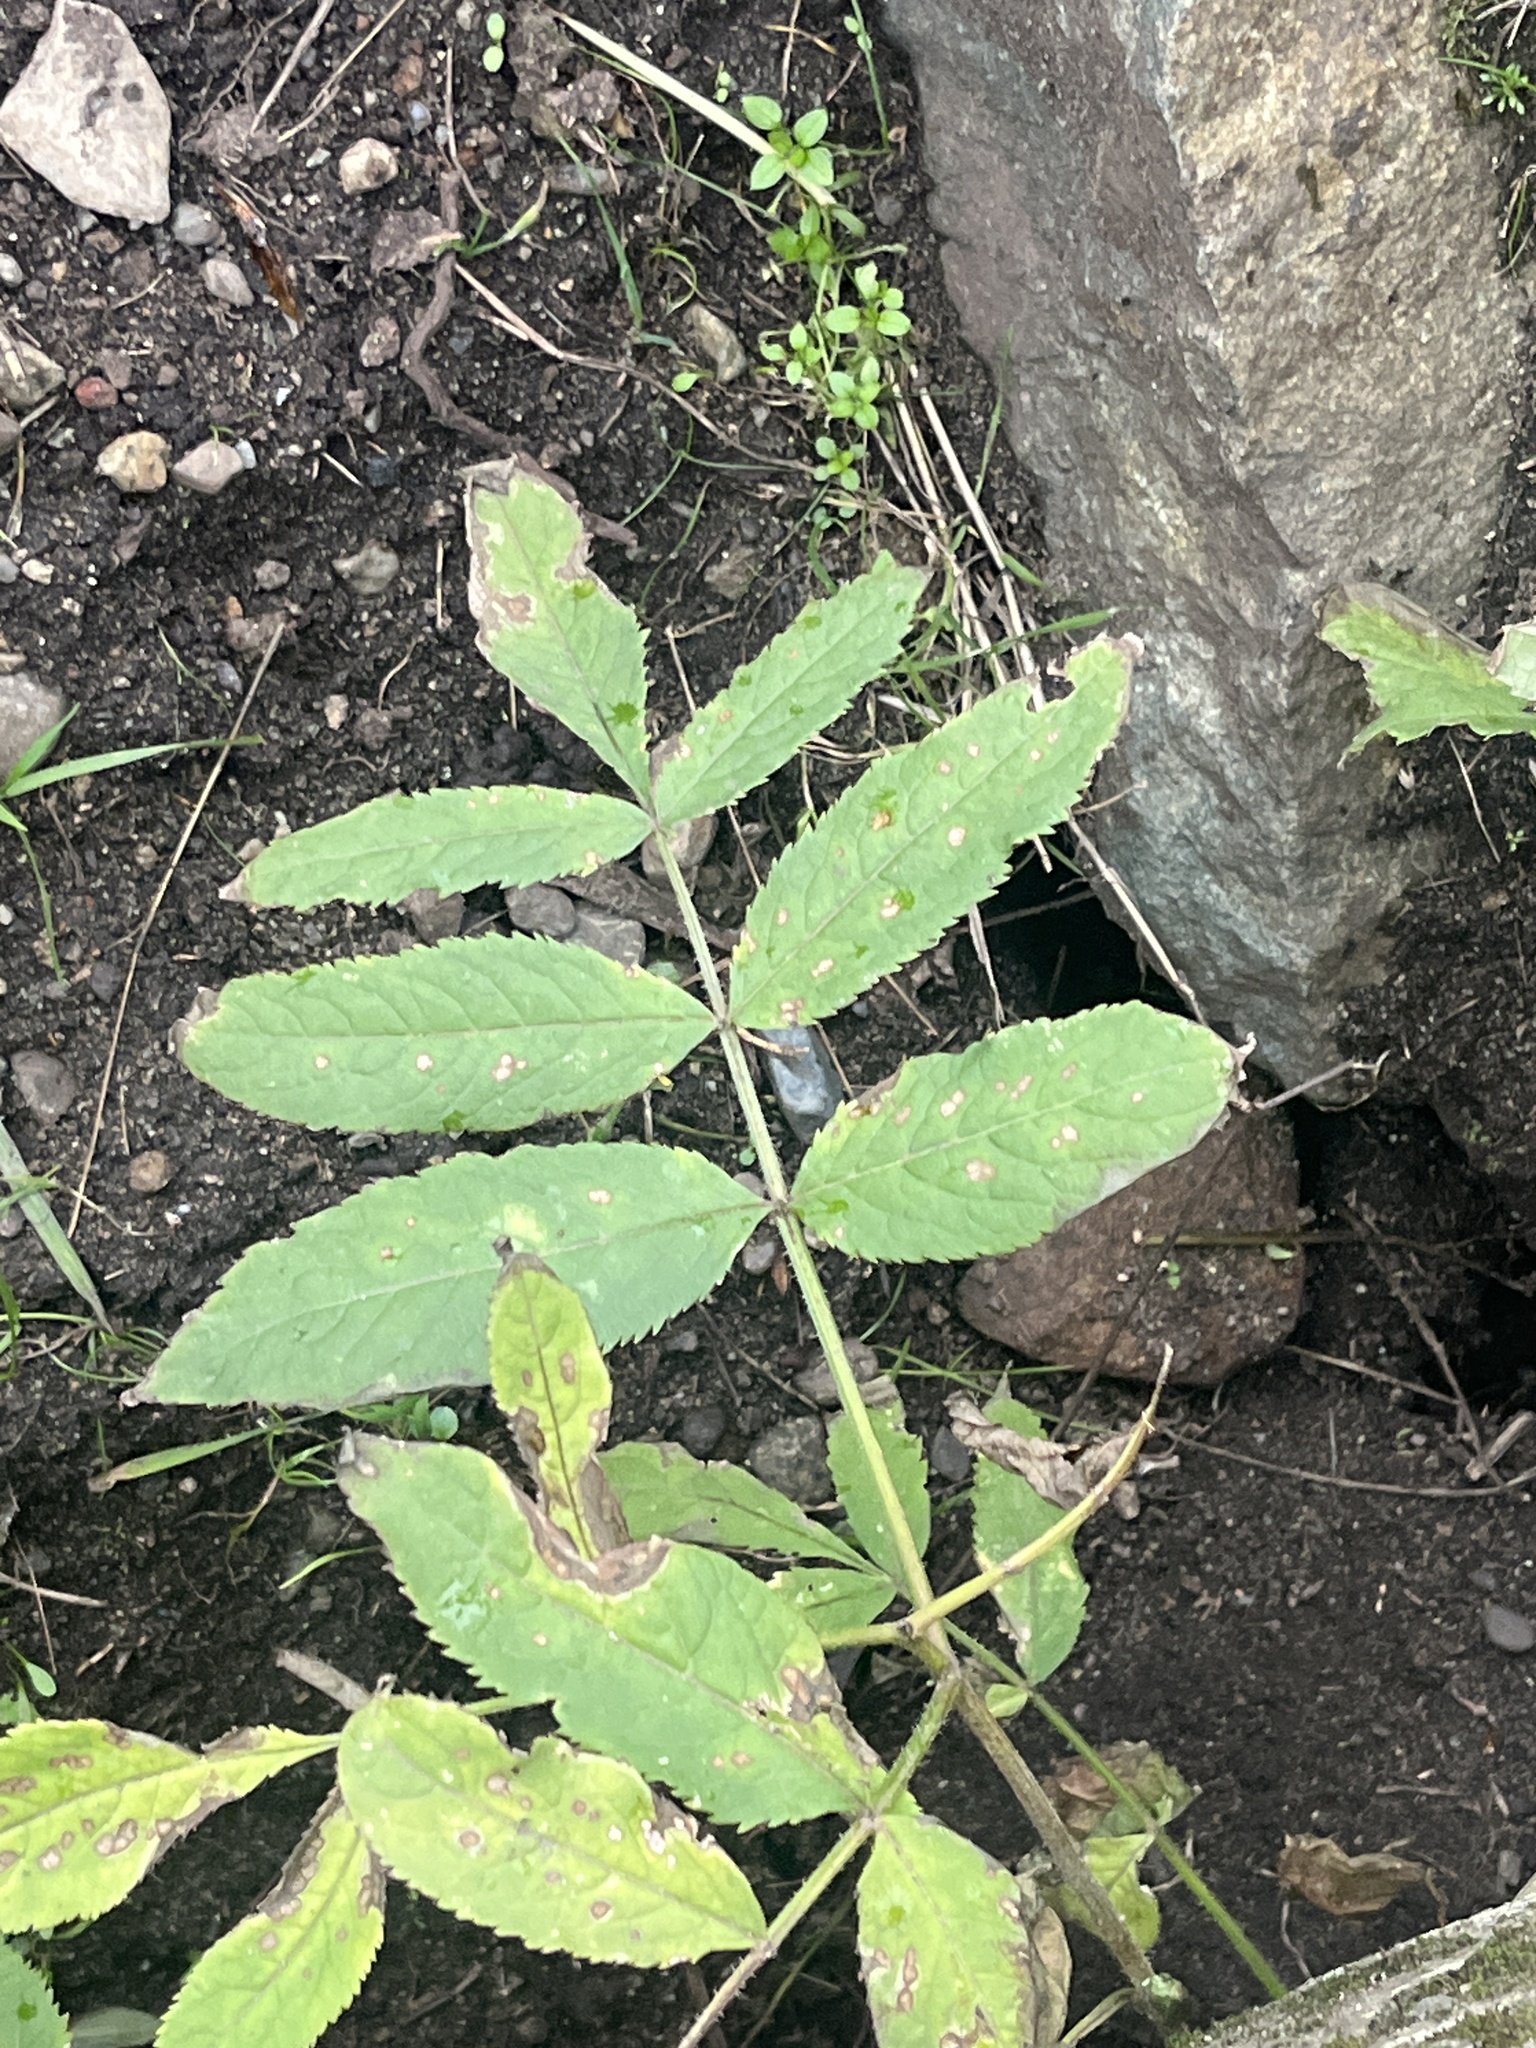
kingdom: Plantae
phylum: Tracheophyta
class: Magnoliopsida
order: Dipsacales
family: Viburnaceae
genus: Sambucus
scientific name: Sambucus racemosa
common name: Red-berried elder
